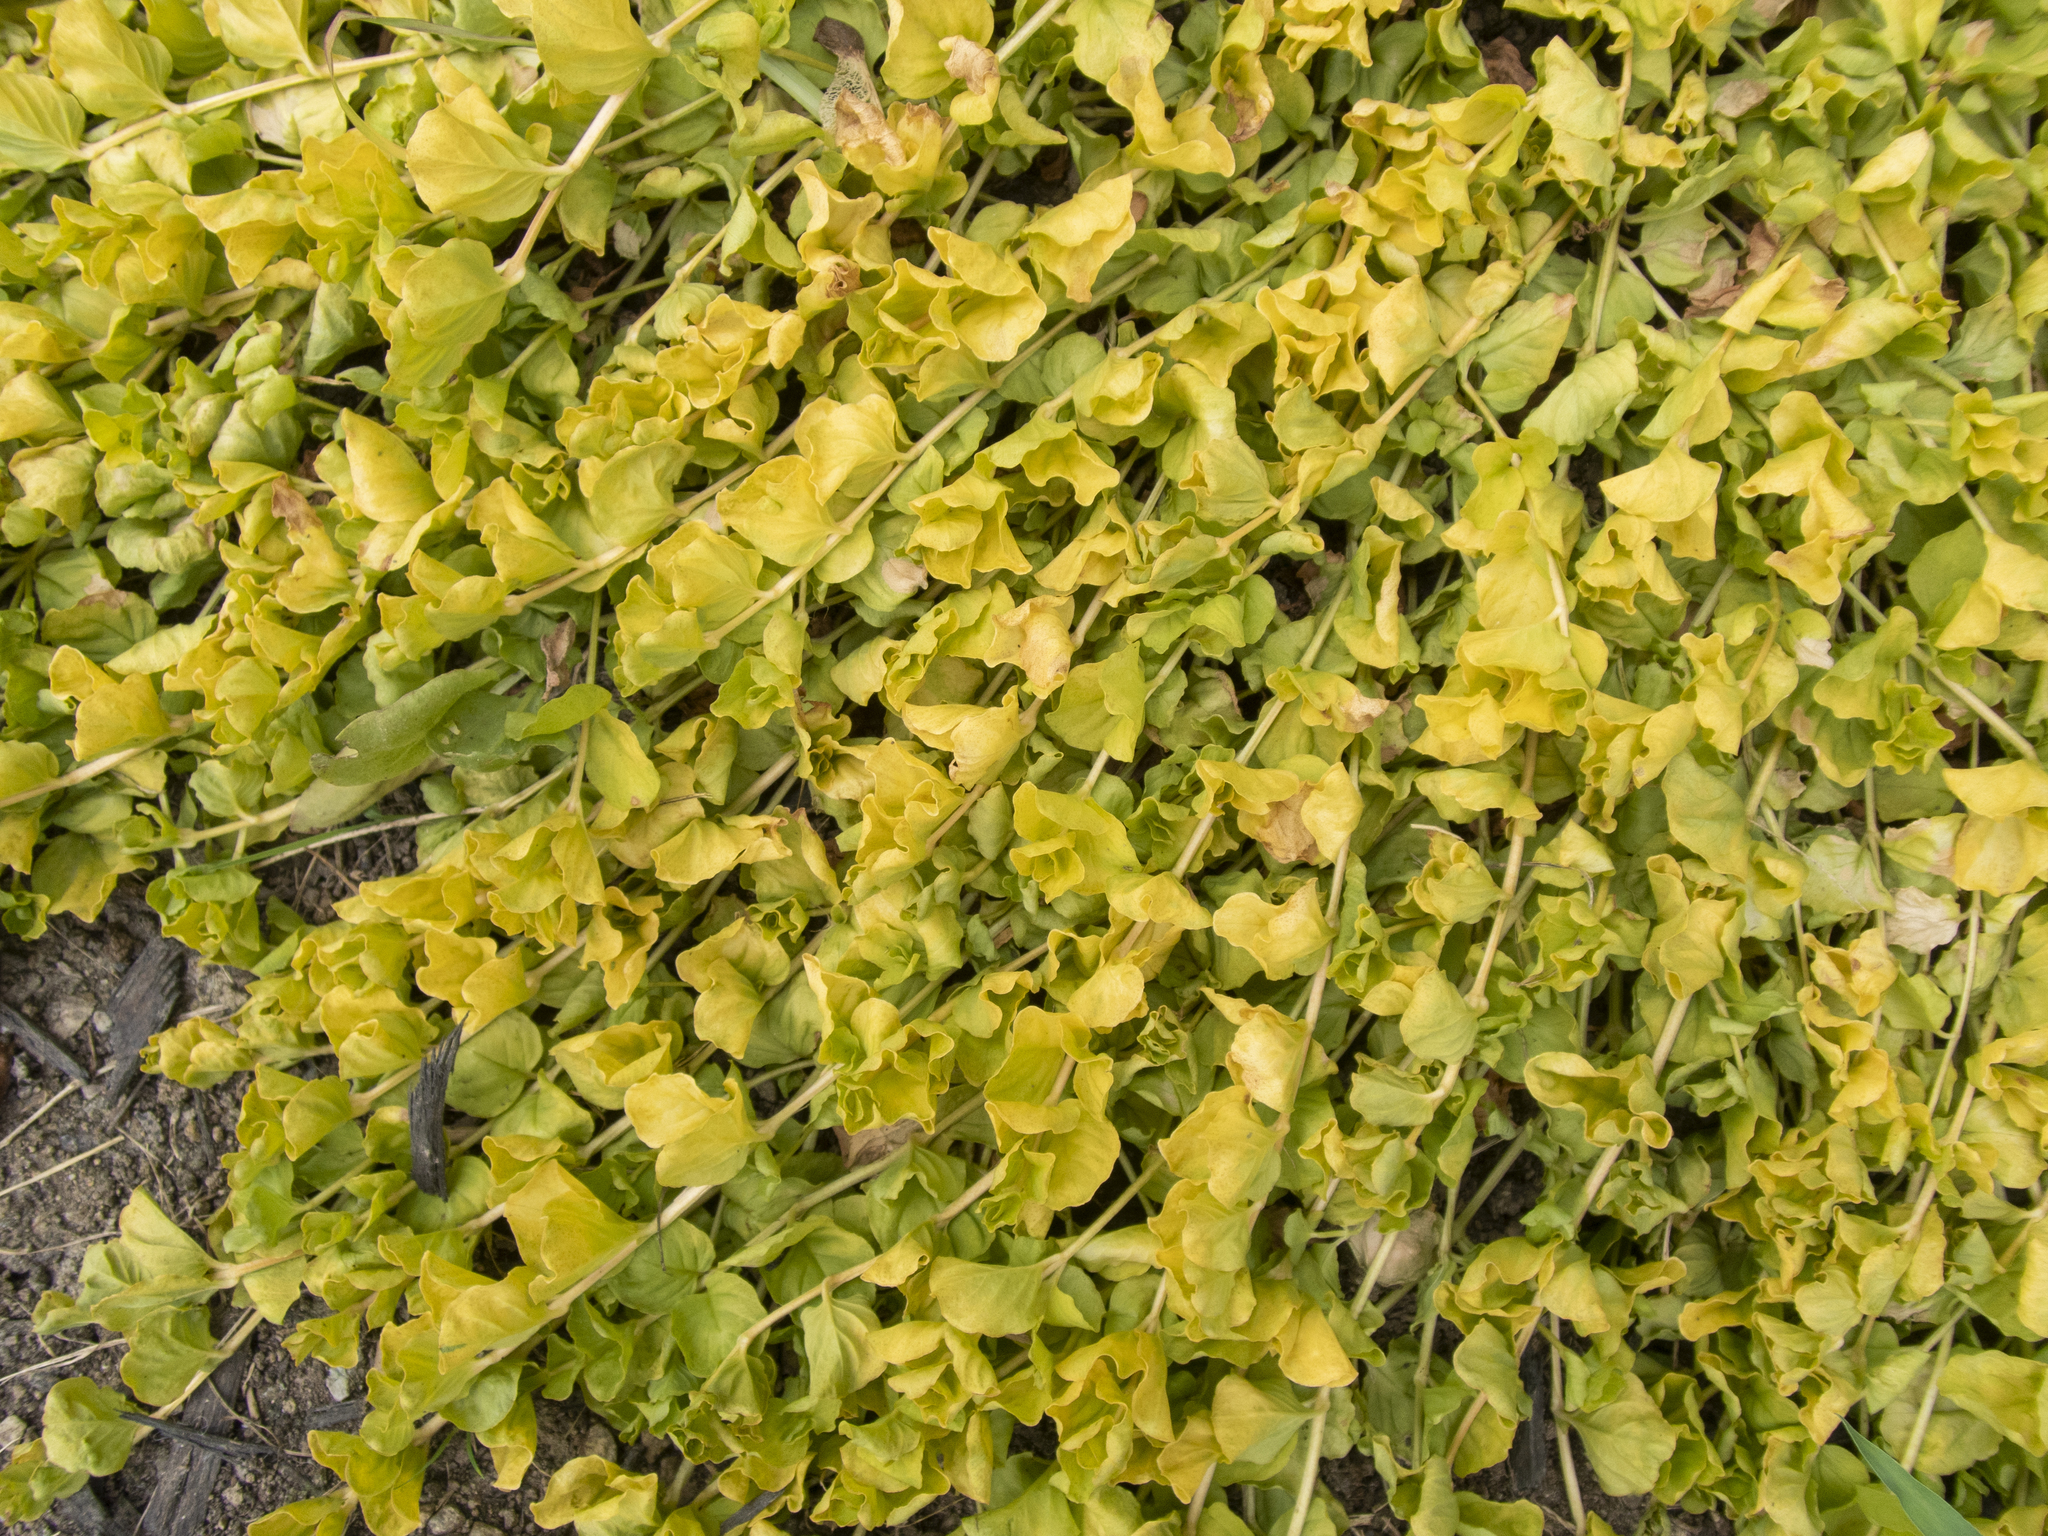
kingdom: Plantae
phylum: Tracheophyta
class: Magnoliopsida
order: Ericales
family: Primulaceae
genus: Lysimachia
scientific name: Lysimachia nummularia
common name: Moneywort
